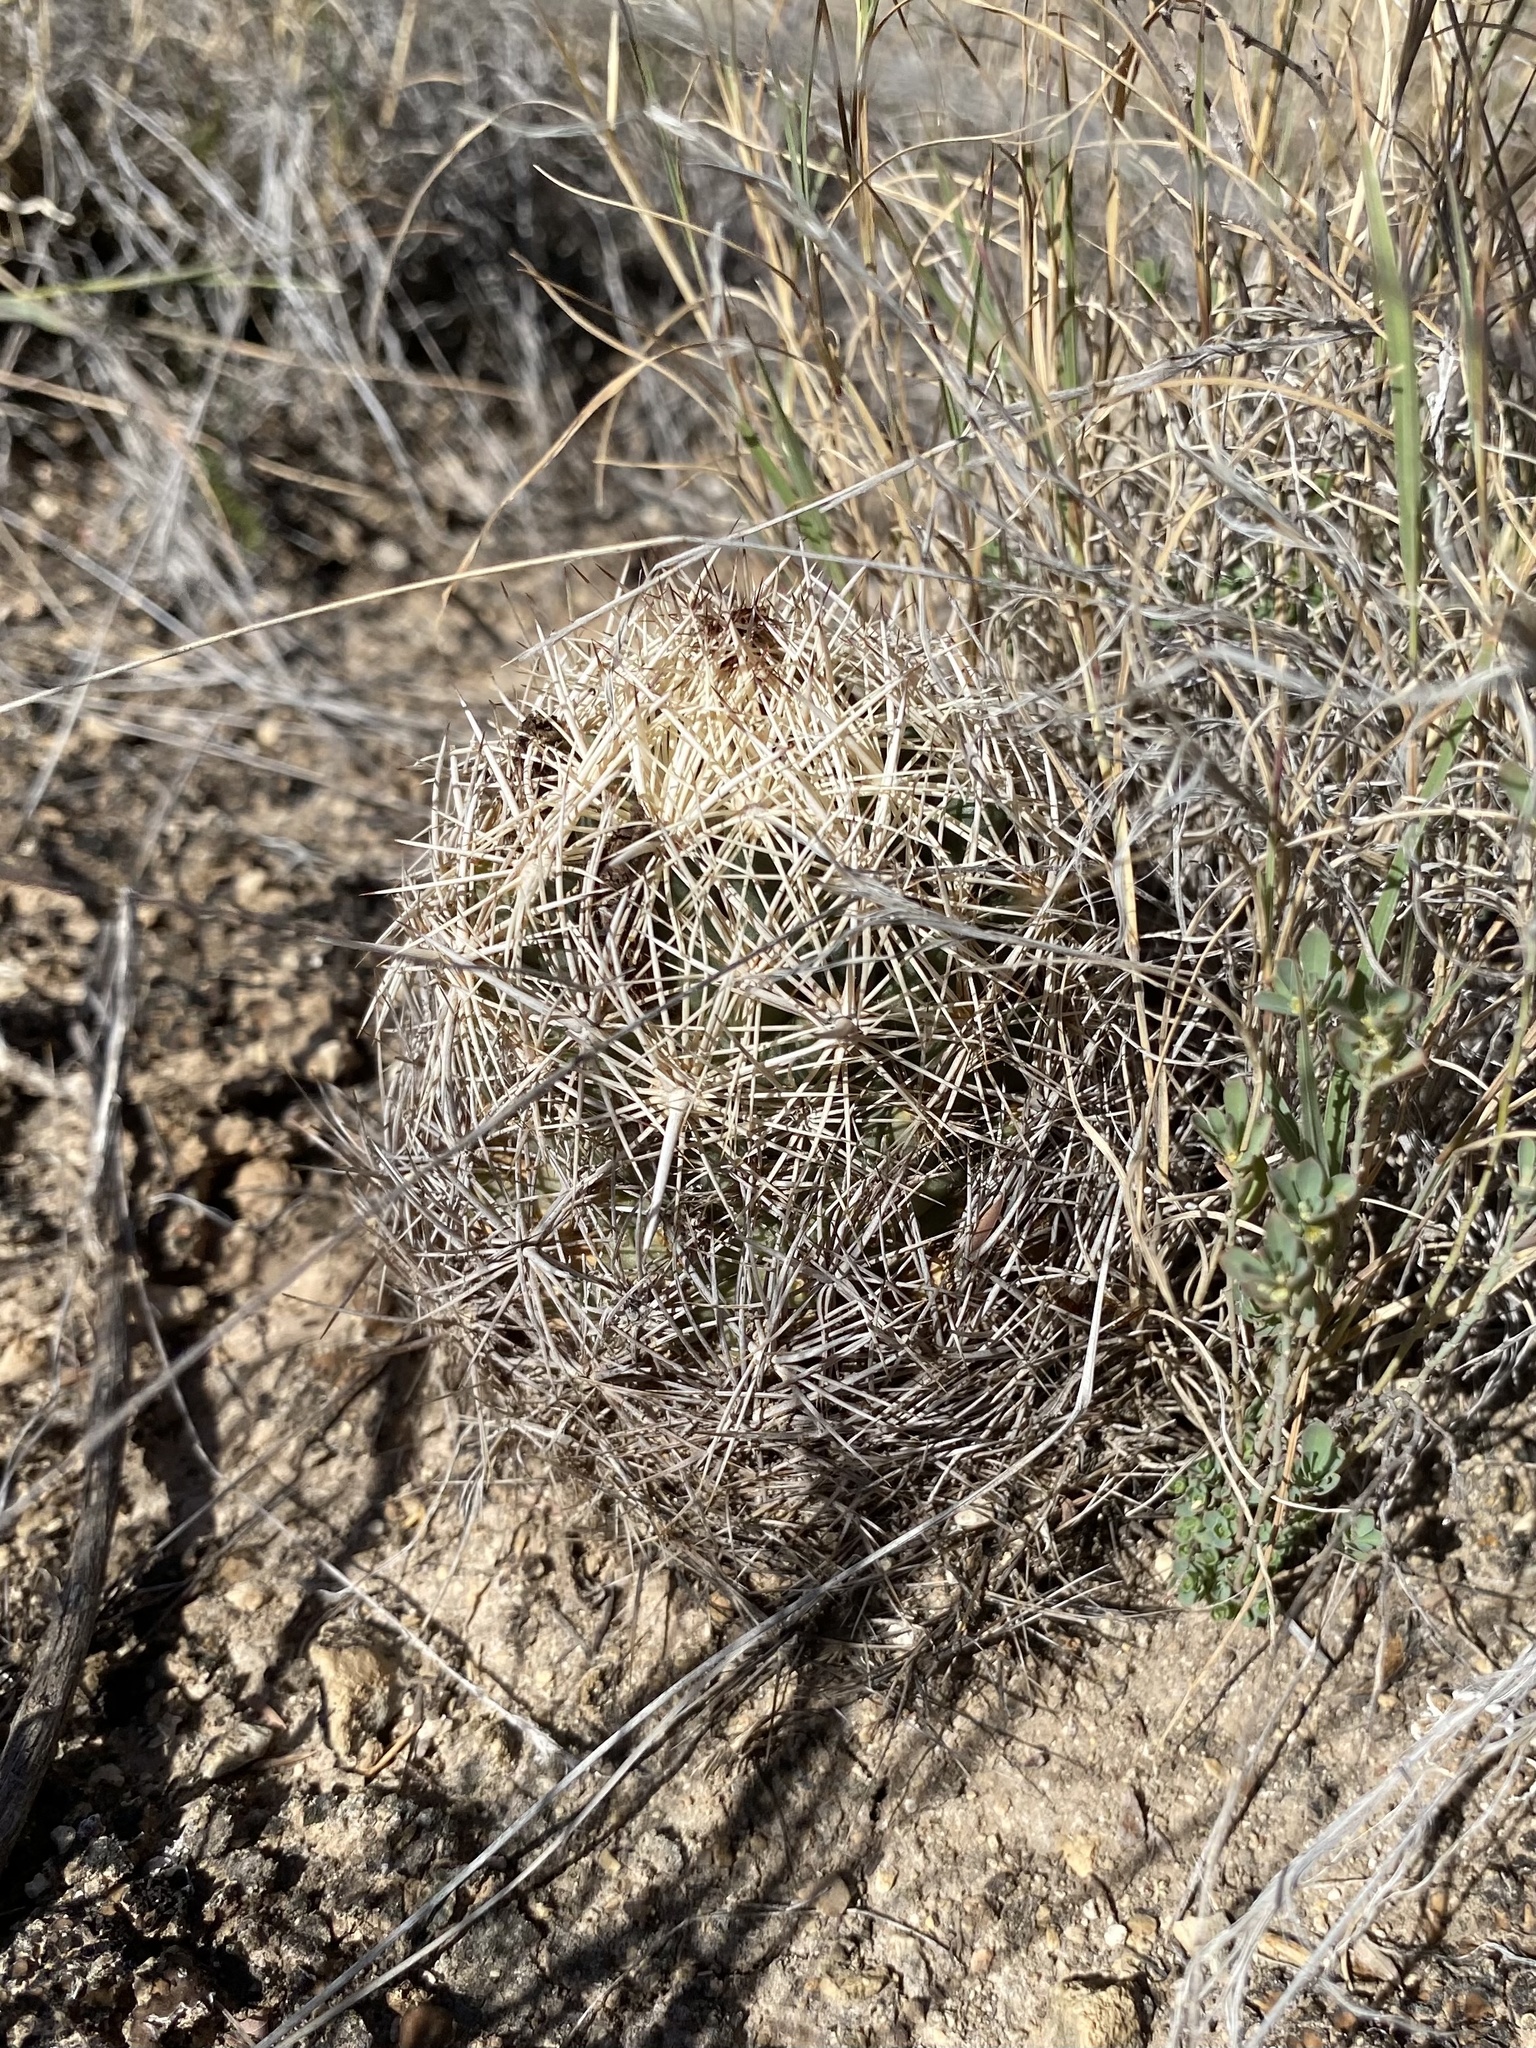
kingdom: Plantae
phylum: Tracheophyta
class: Magnoliopsida
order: Caryophyllales
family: Cactaceae
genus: Coryphantha
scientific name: Coryphantha echinus
